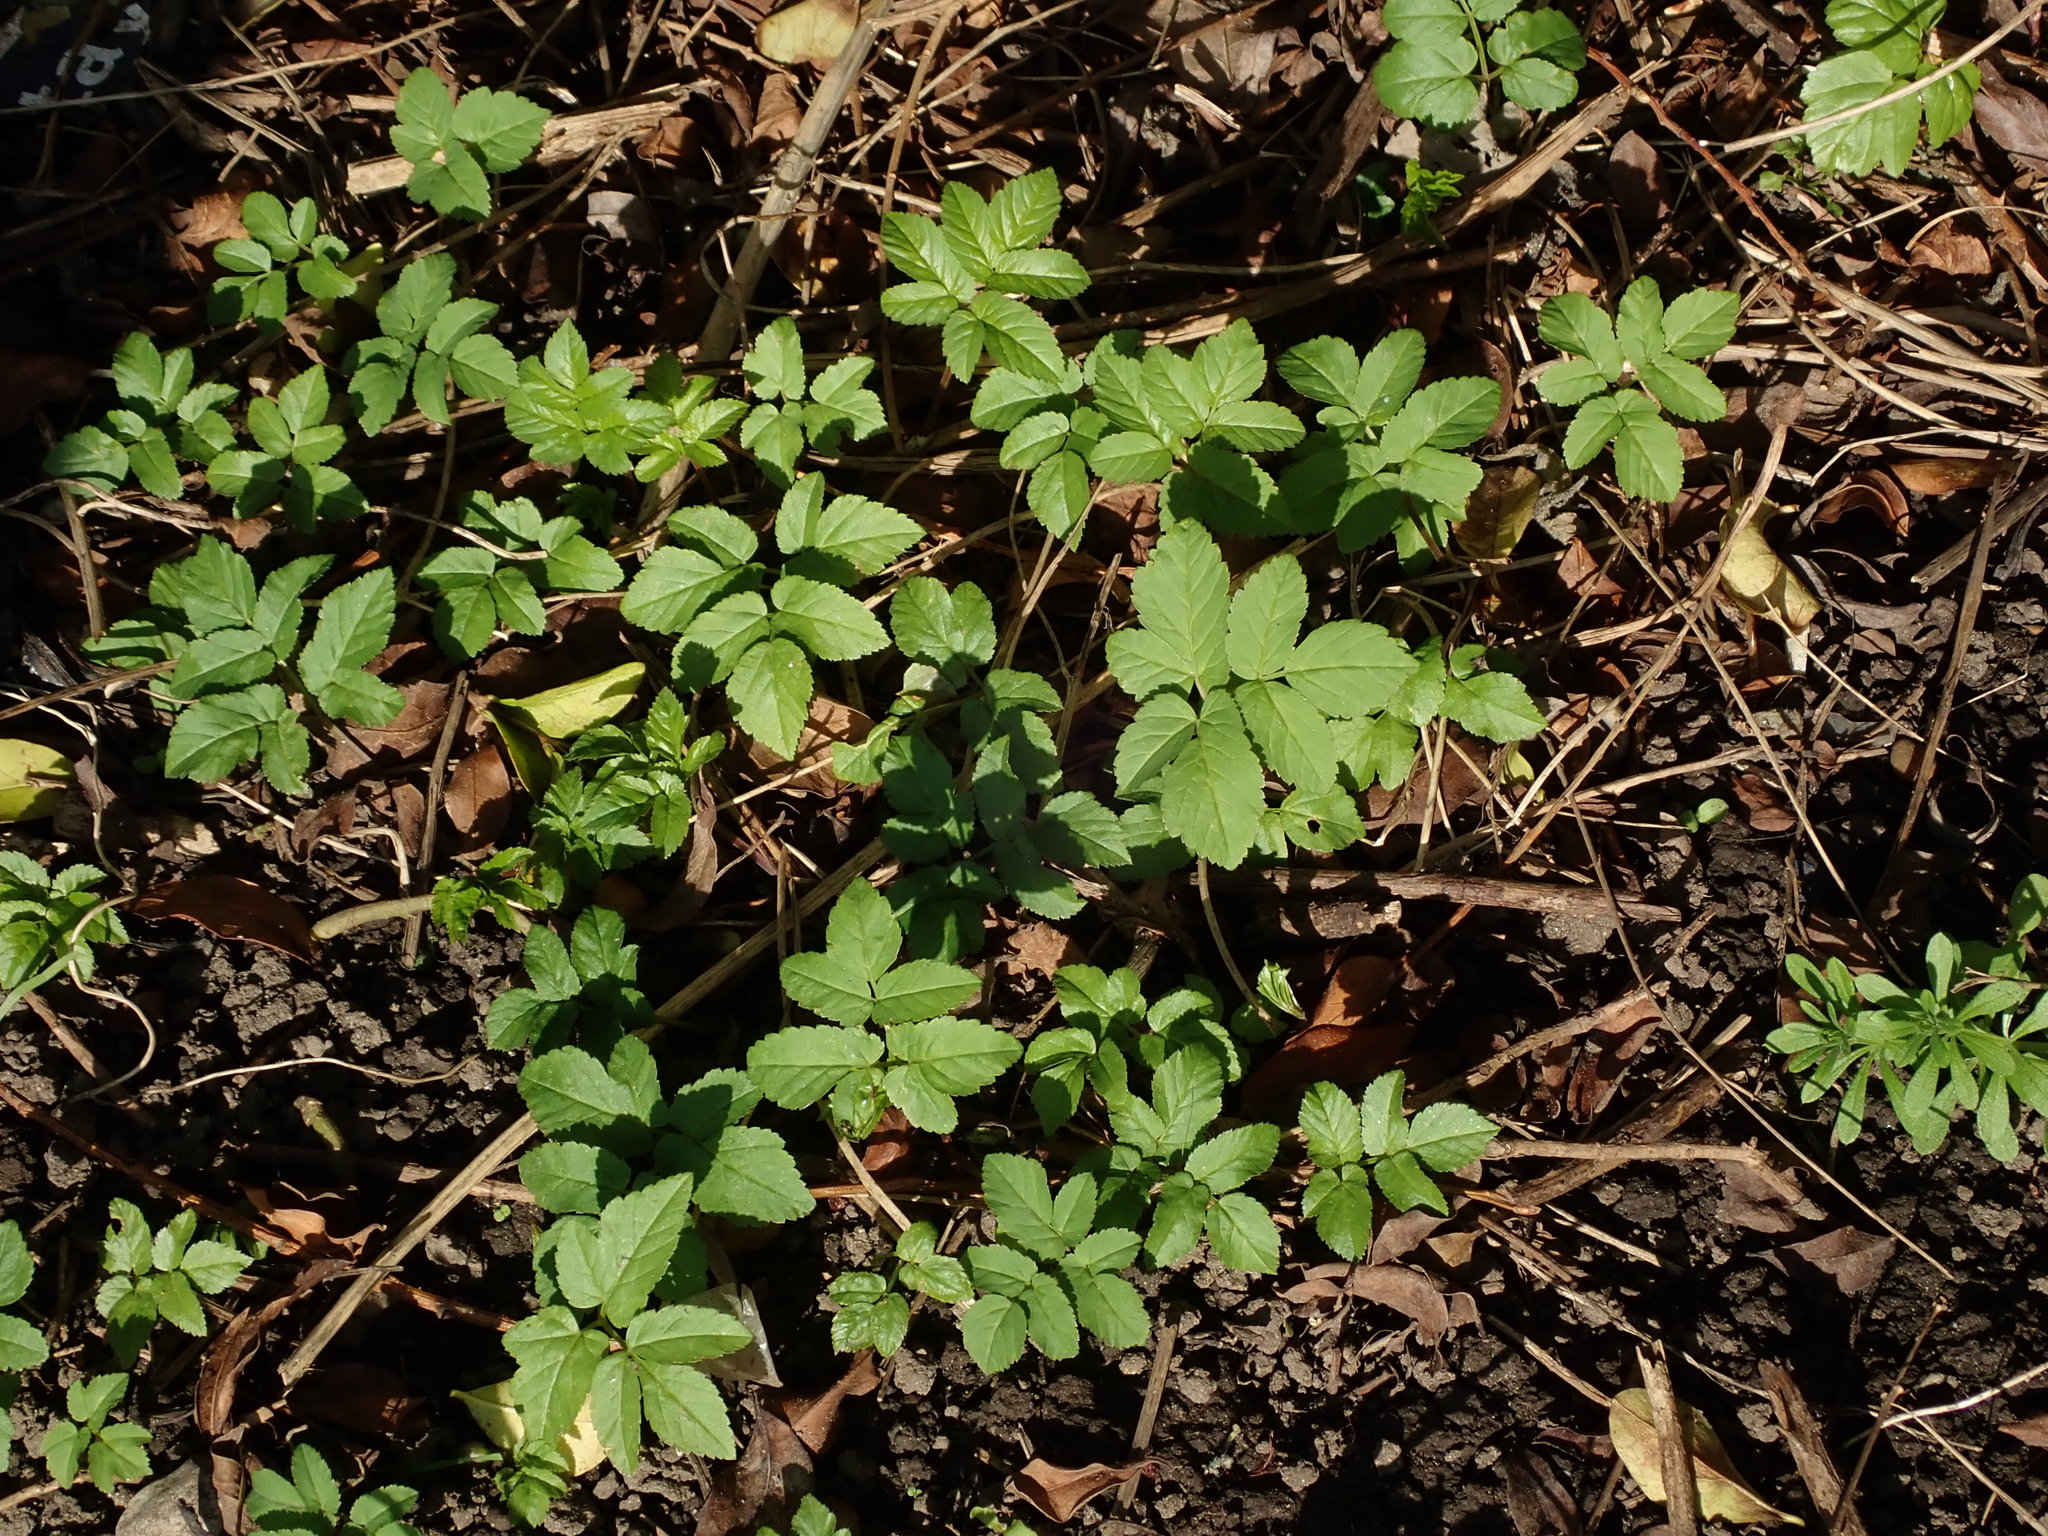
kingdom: Plantae
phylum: Tracheophyta
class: Magnoliopsida
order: Apiales
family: Apiaceae
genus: Aegopodium
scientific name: Aegopodium podagraria
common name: Ground-elder
